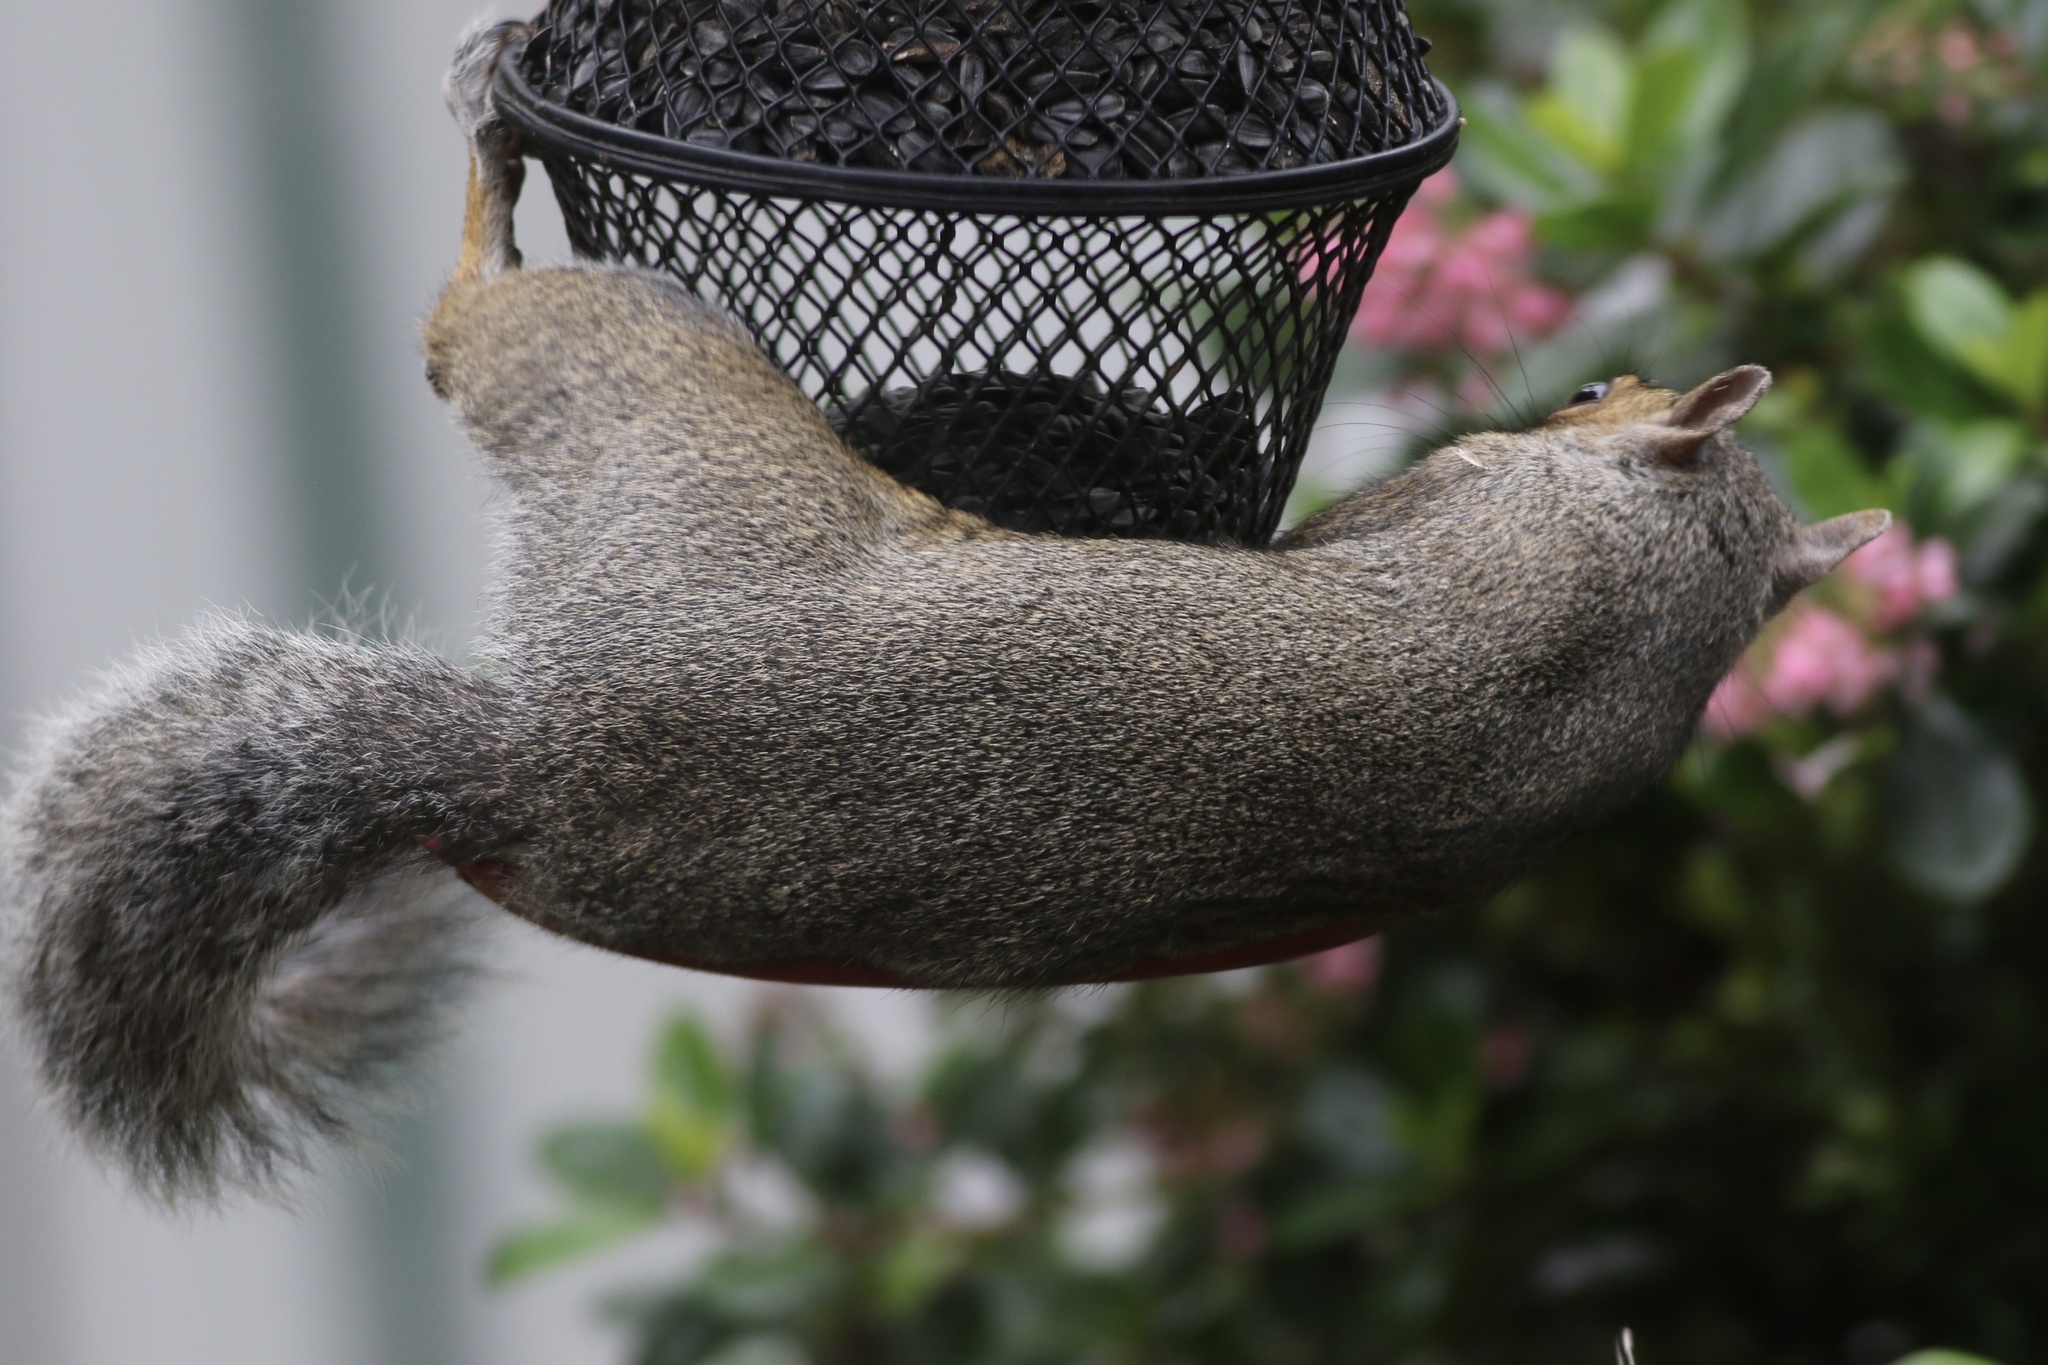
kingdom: Animalia
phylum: Chordata
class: Mammalia
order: Rodentia
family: Sciuridae
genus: Sciurus
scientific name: Sciurus carolinensis
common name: Eastern gray squirrel
